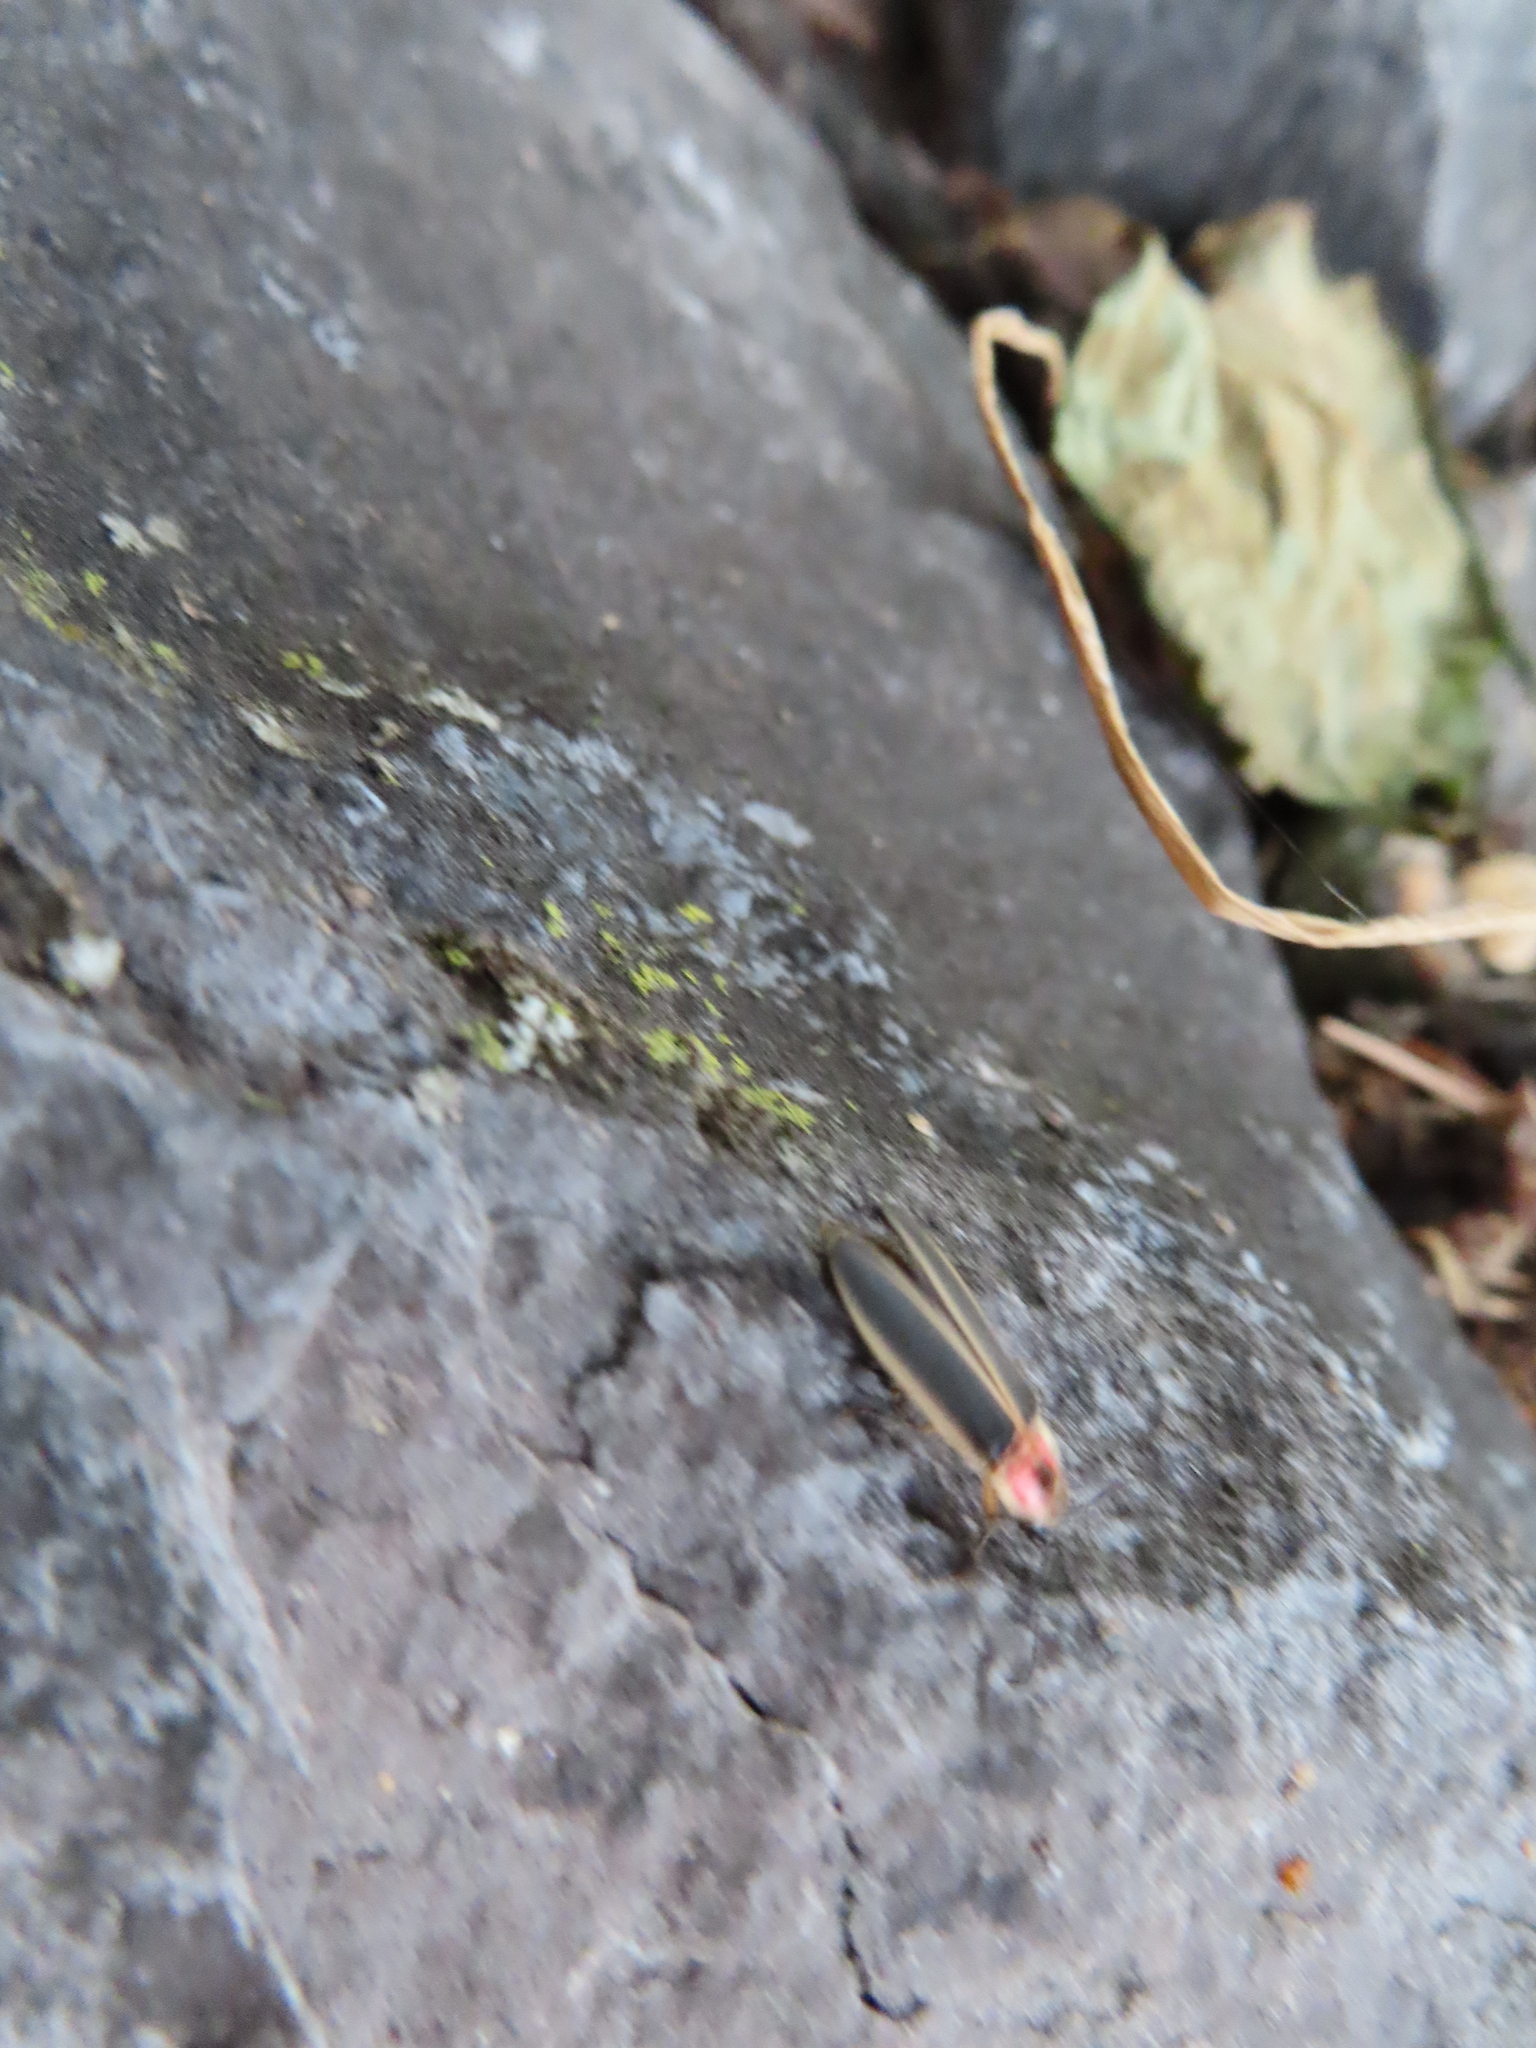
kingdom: Animalia
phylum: Arthropoda
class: Insecta
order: Coleoptera
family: Lampyridae
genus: Photinus
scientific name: Photinus pyralis
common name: Big dipper firefly
